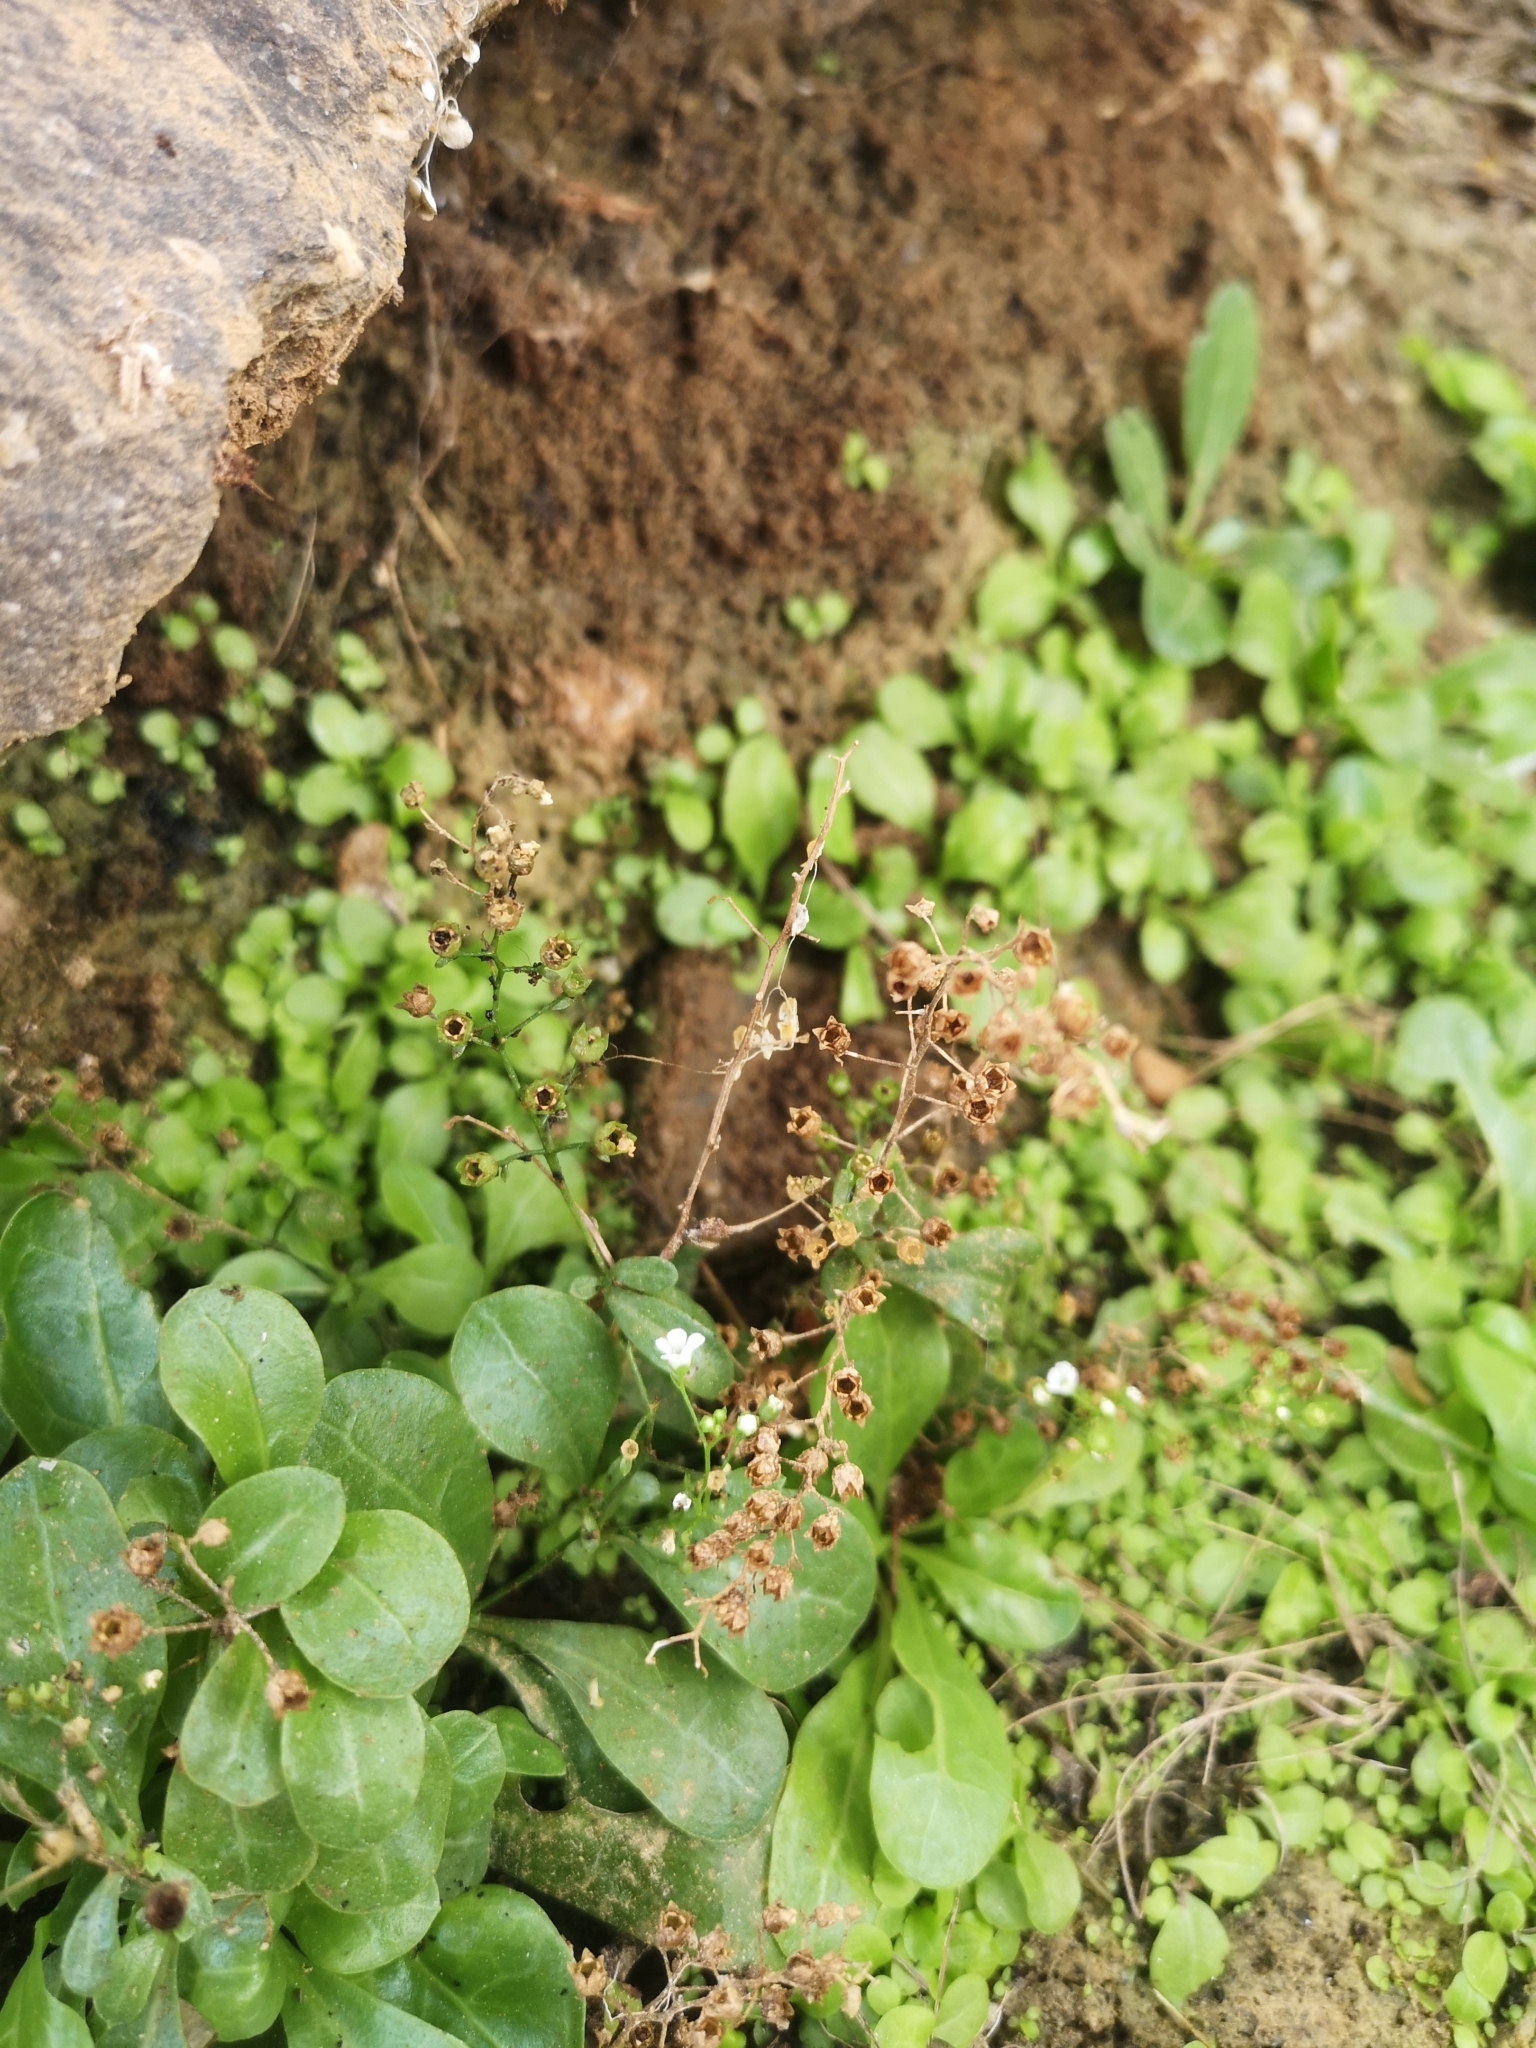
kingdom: Plantae
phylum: Tracheophyta
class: Magnoliopsida
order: Ericales
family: Primulaceae
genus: Samolus
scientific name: Samolus valerandi
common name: Brookweed
